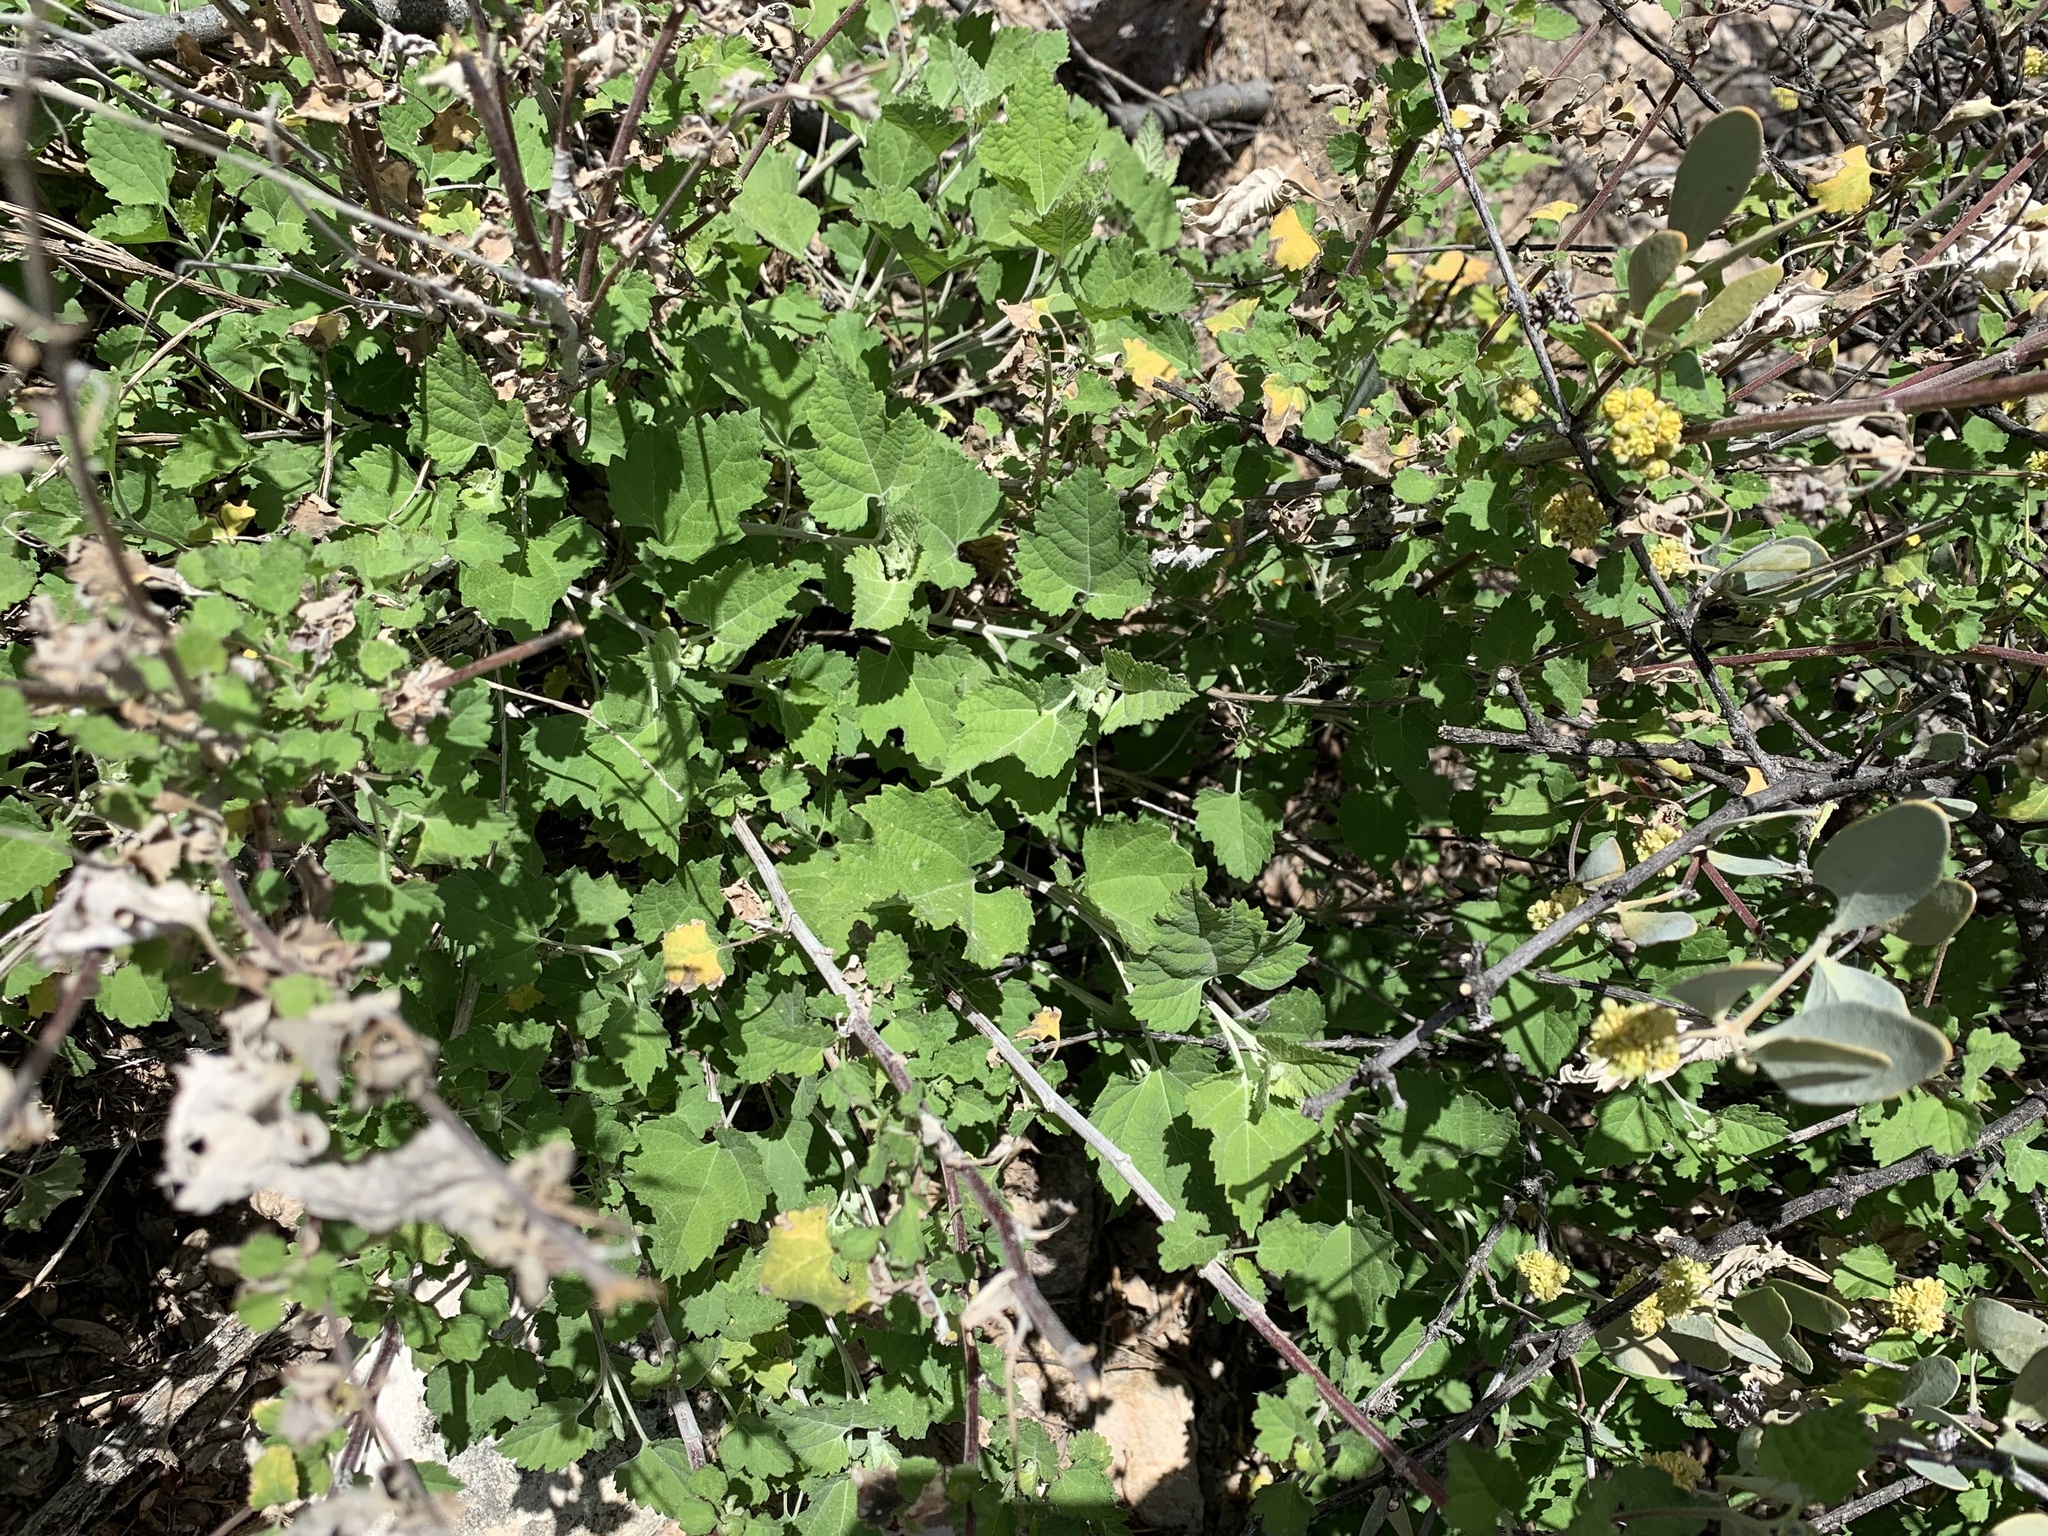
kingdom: Plantae
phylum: Tracheophyta
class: Magnoliopsida
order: Asterales
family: Asteraceae
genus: Ambrosia
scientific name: Ambrosia cordifolia
